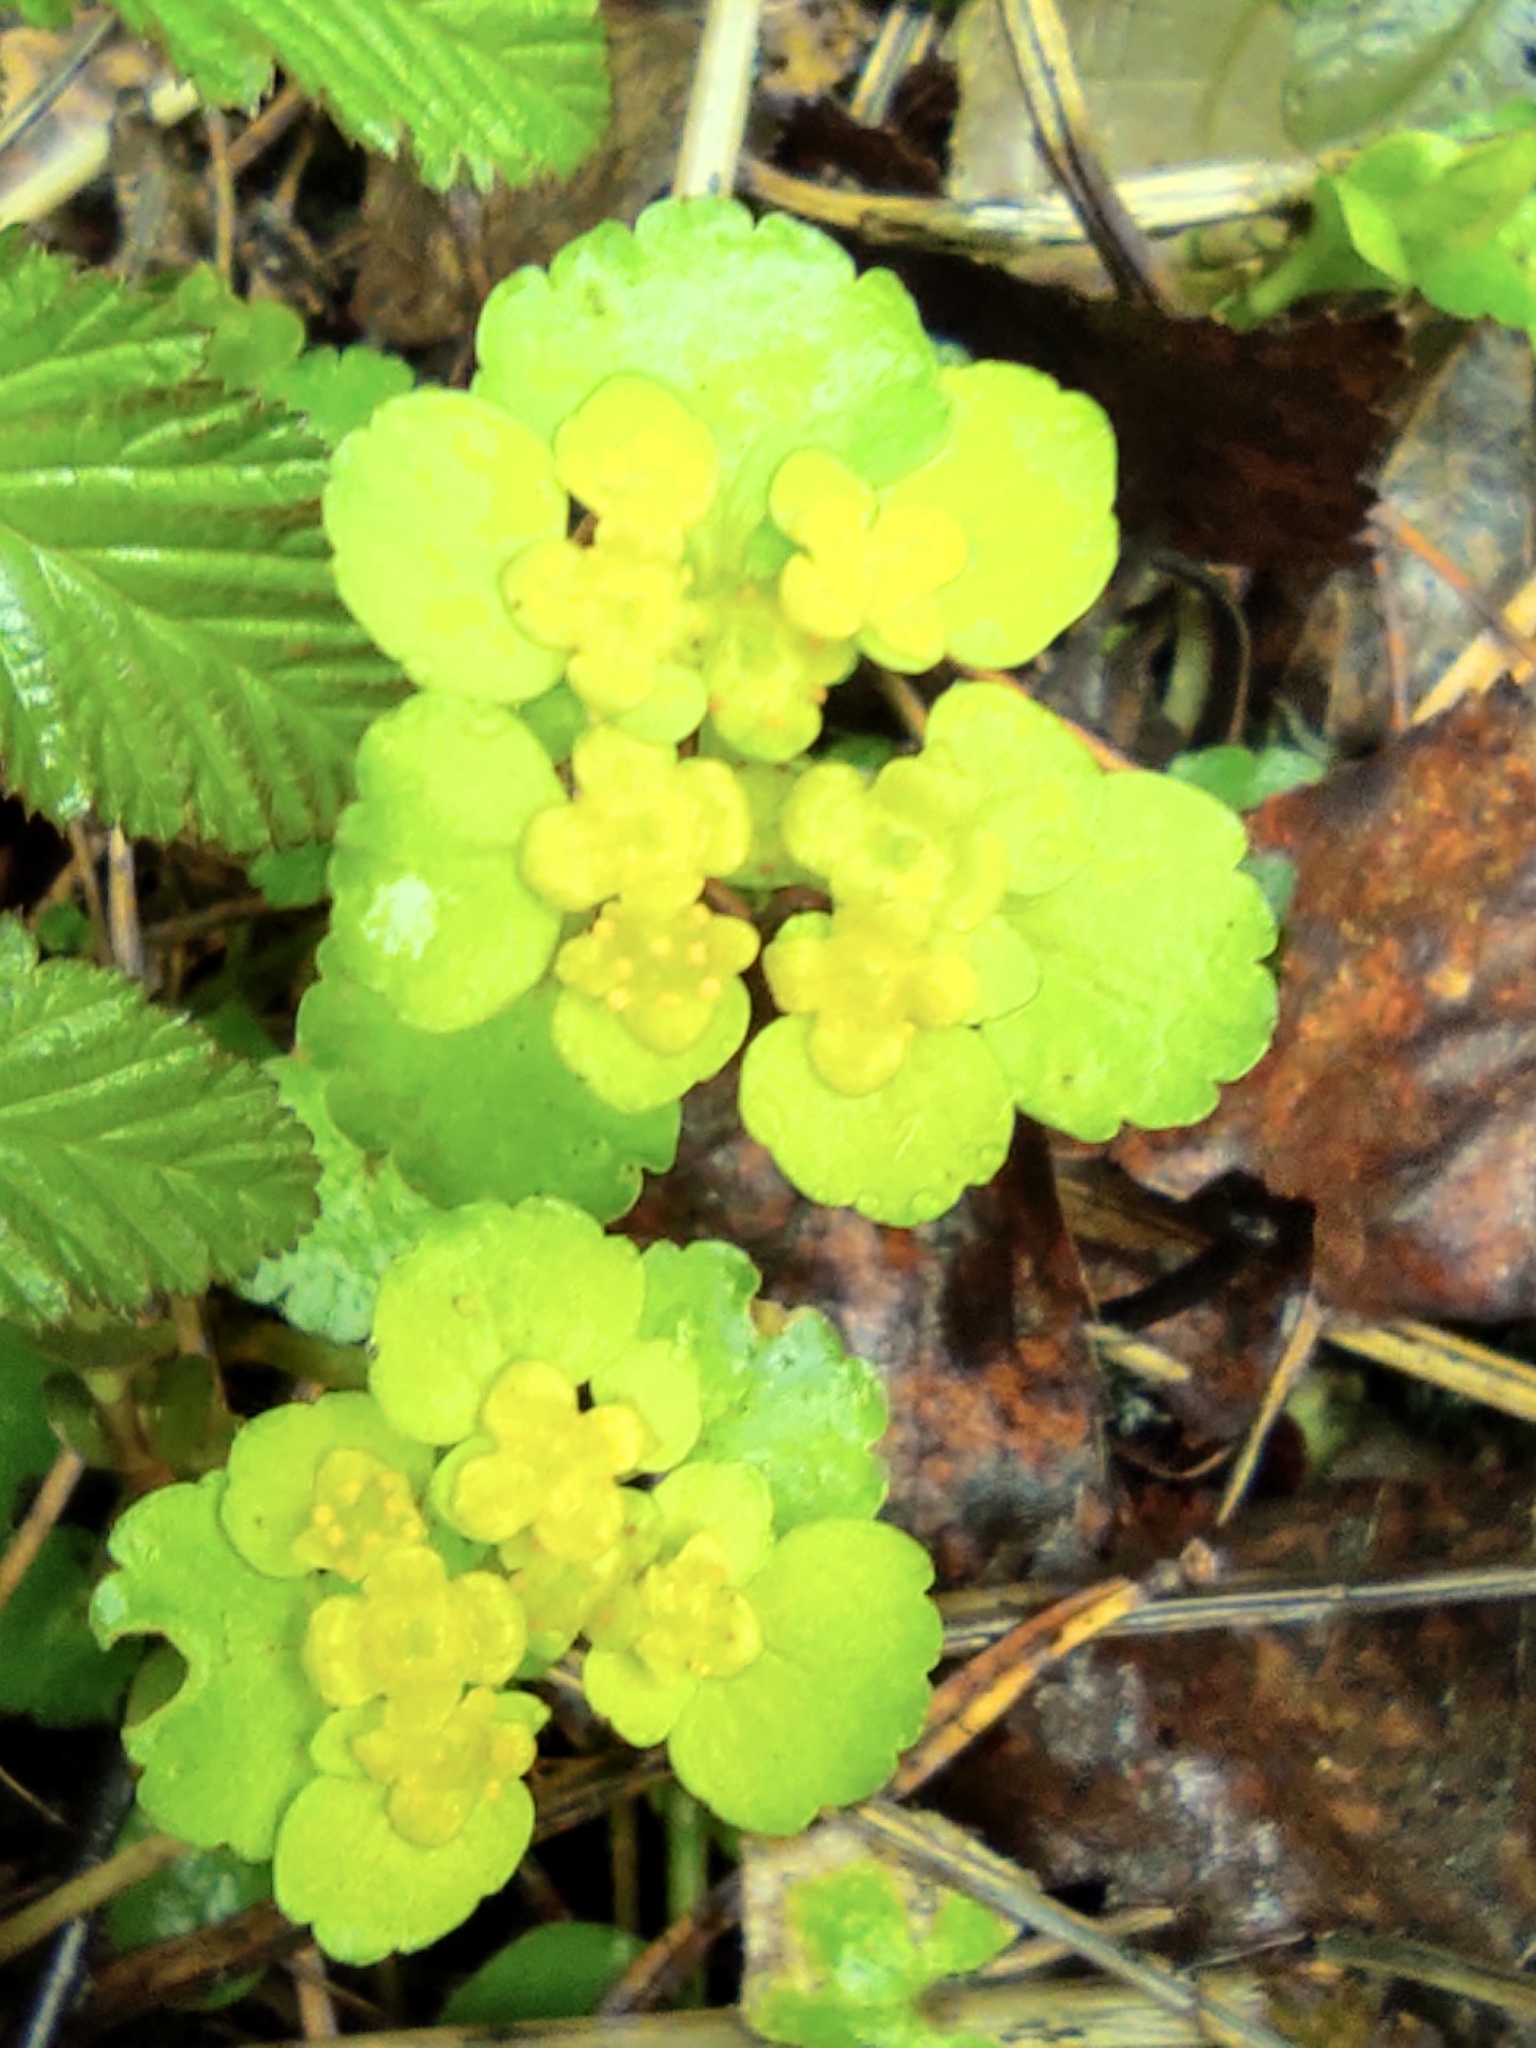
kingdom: Plantae
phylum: Tracheophyta
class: Magnoliopsida
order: Saxifragales
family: Saxifragaceae
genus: Chrysosplenium
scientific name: Chrysosplenium alternifolium
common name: Alternate-leaved golden-saxifrage
